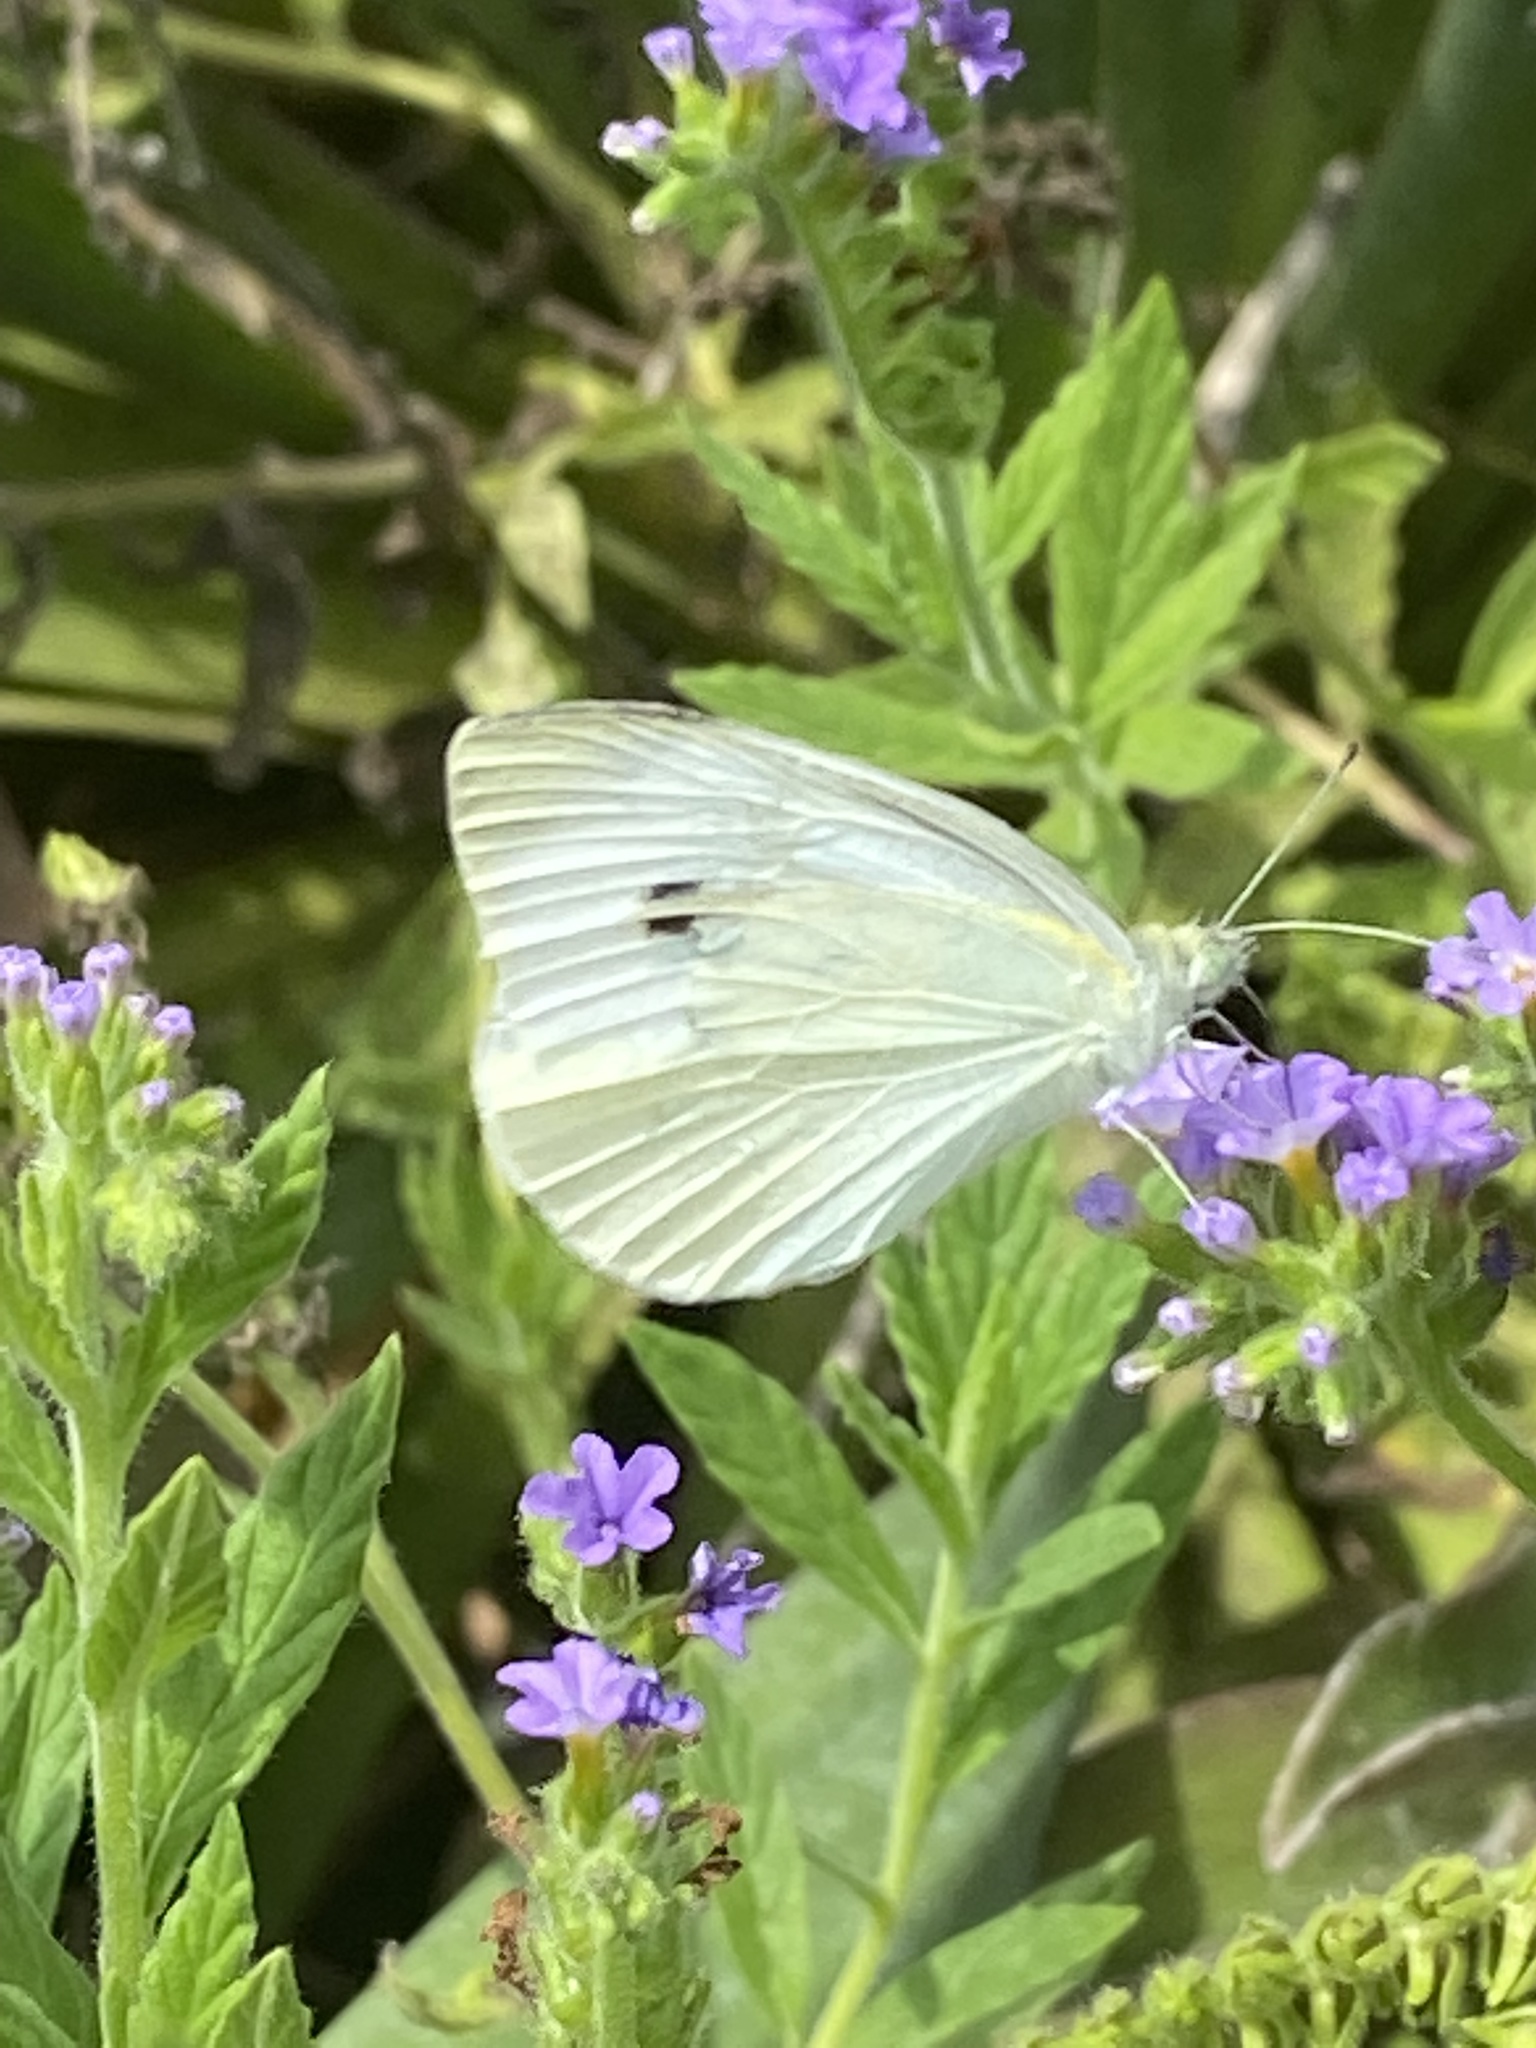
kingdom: Animalia
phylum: Arthropoda
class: Insecta
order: Lepidoptera
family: Pieridae
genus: Pieris
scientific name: Pieris rapae
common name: Small white
